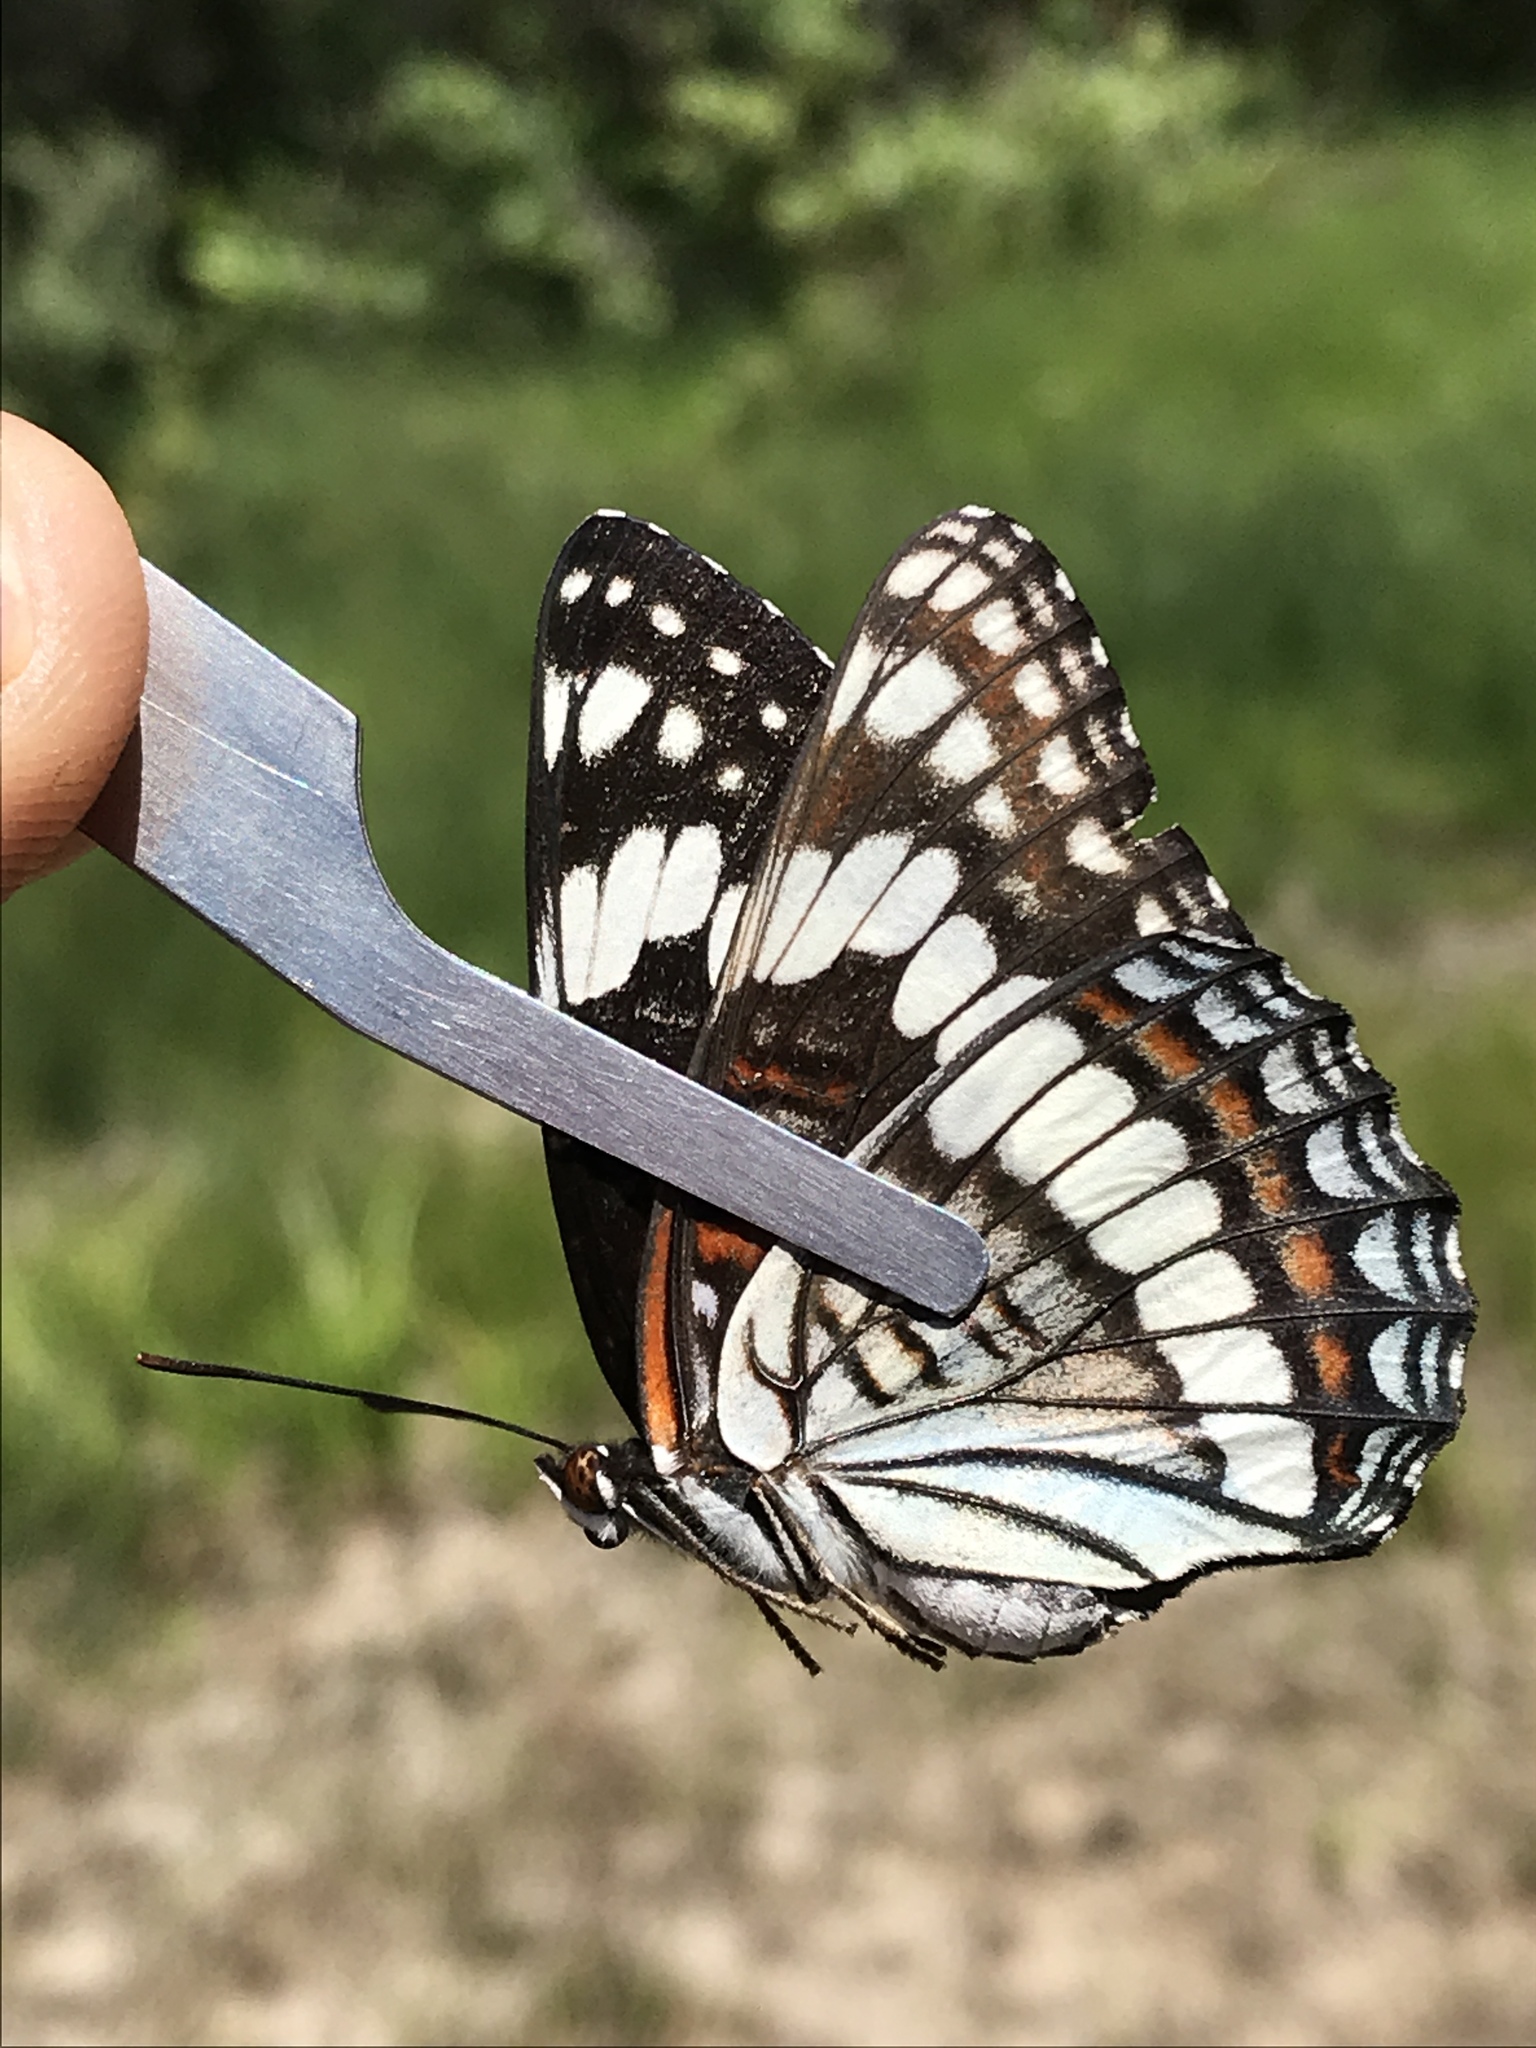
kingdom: Animalia
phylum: Arthropoda
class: Insecta
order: Lepidoptera
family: Nymphalidae
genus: Limenitis
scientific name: Limenitis weidemeyerii
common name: Weidemeyer's admiral
